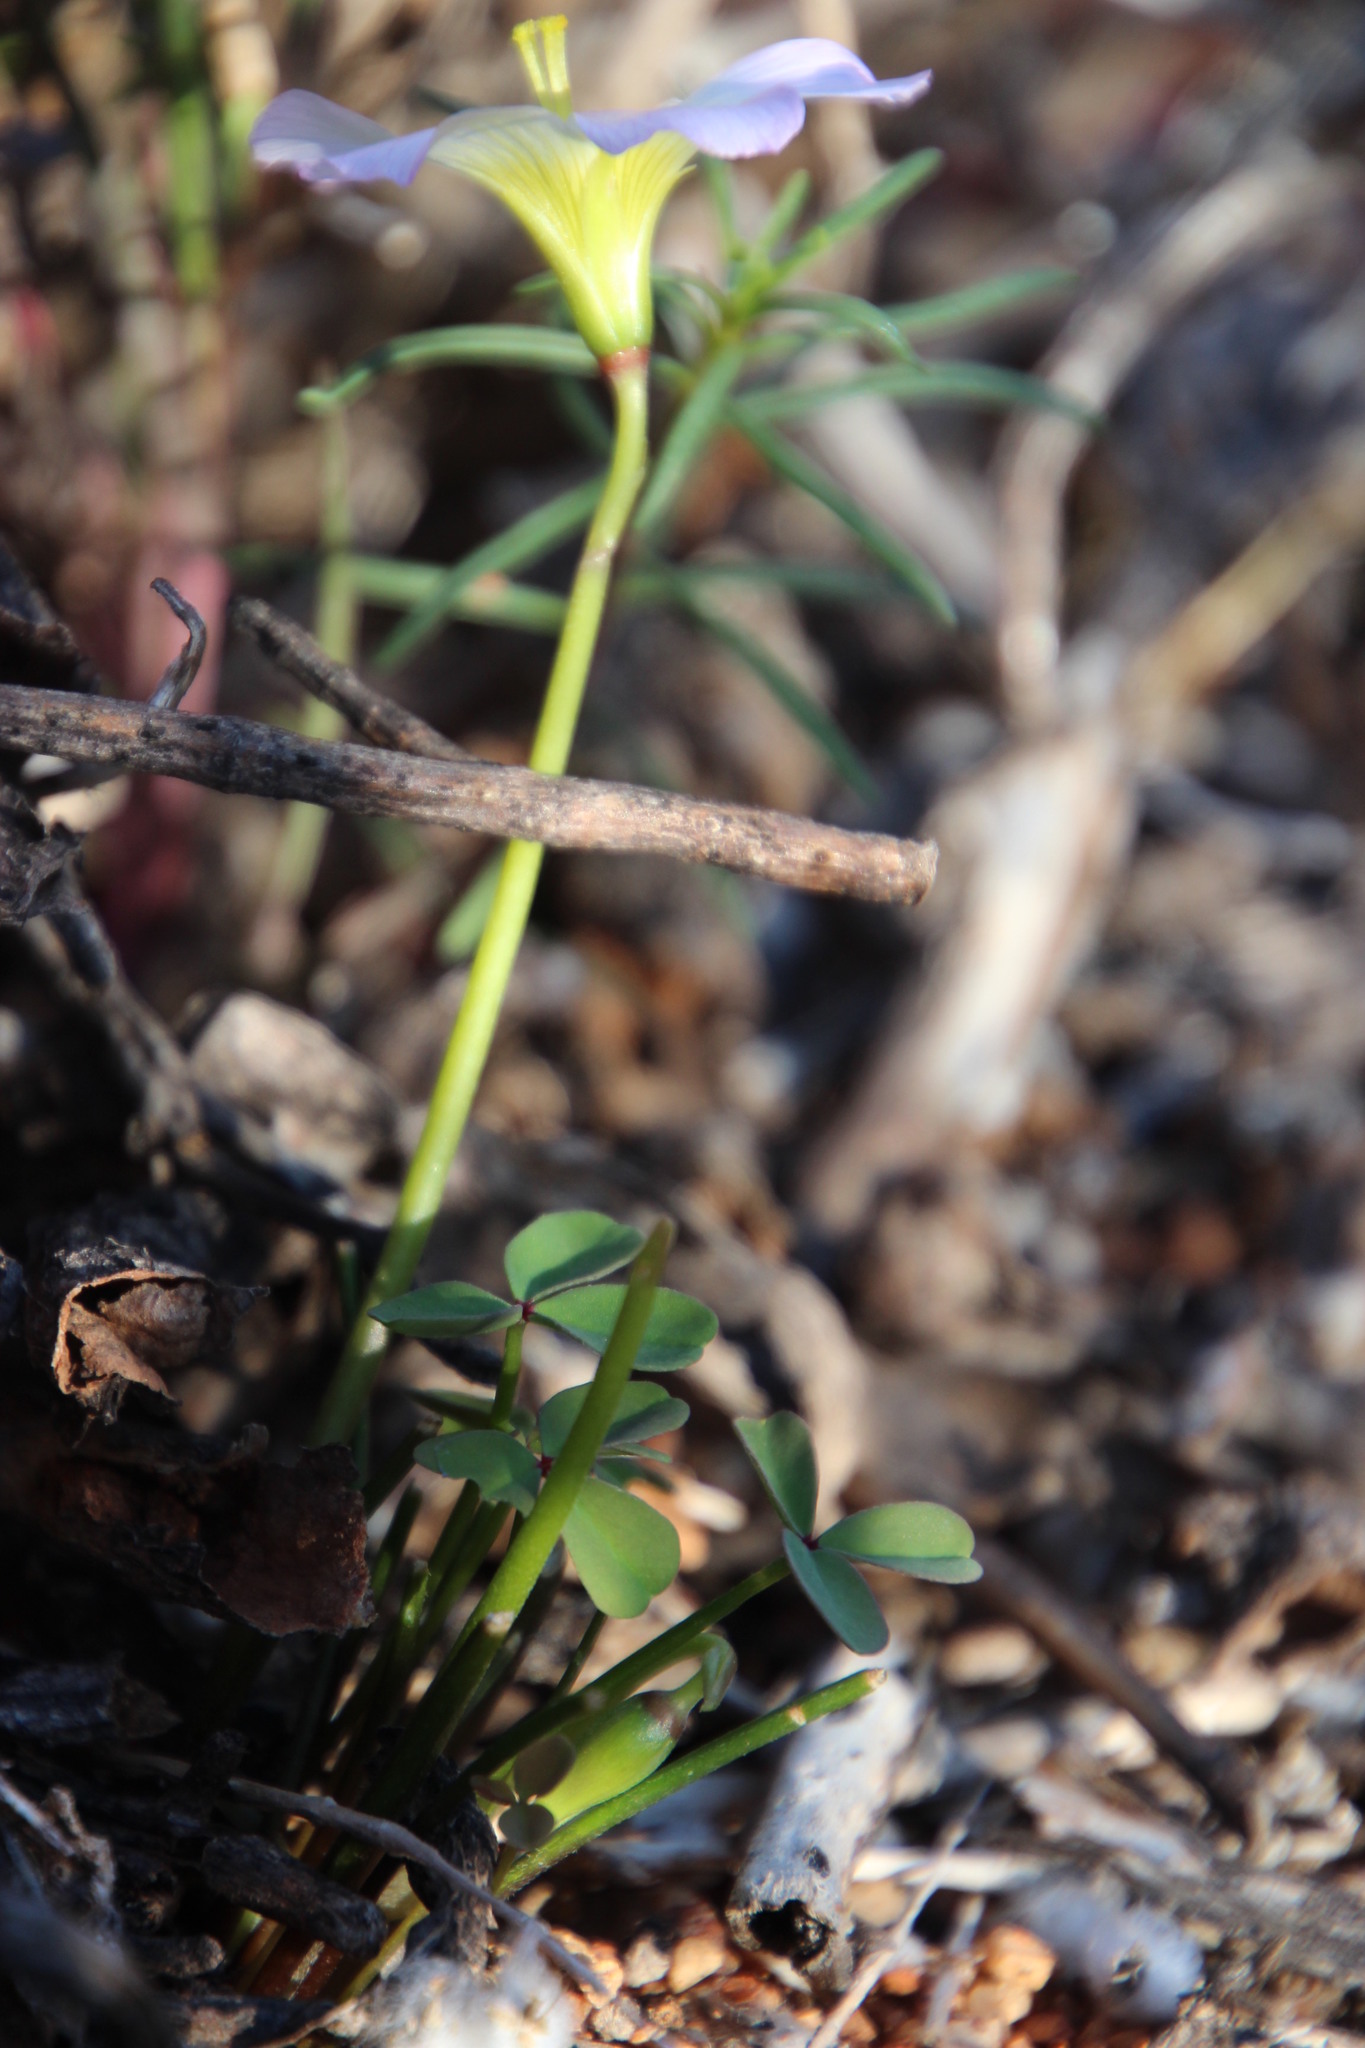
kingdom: Plantae
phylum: Tracheophyta
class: Magnoliopsida
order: Oxalidales
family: Oxalidaceae
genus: Oxalis
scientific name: Oxalis obtusa
